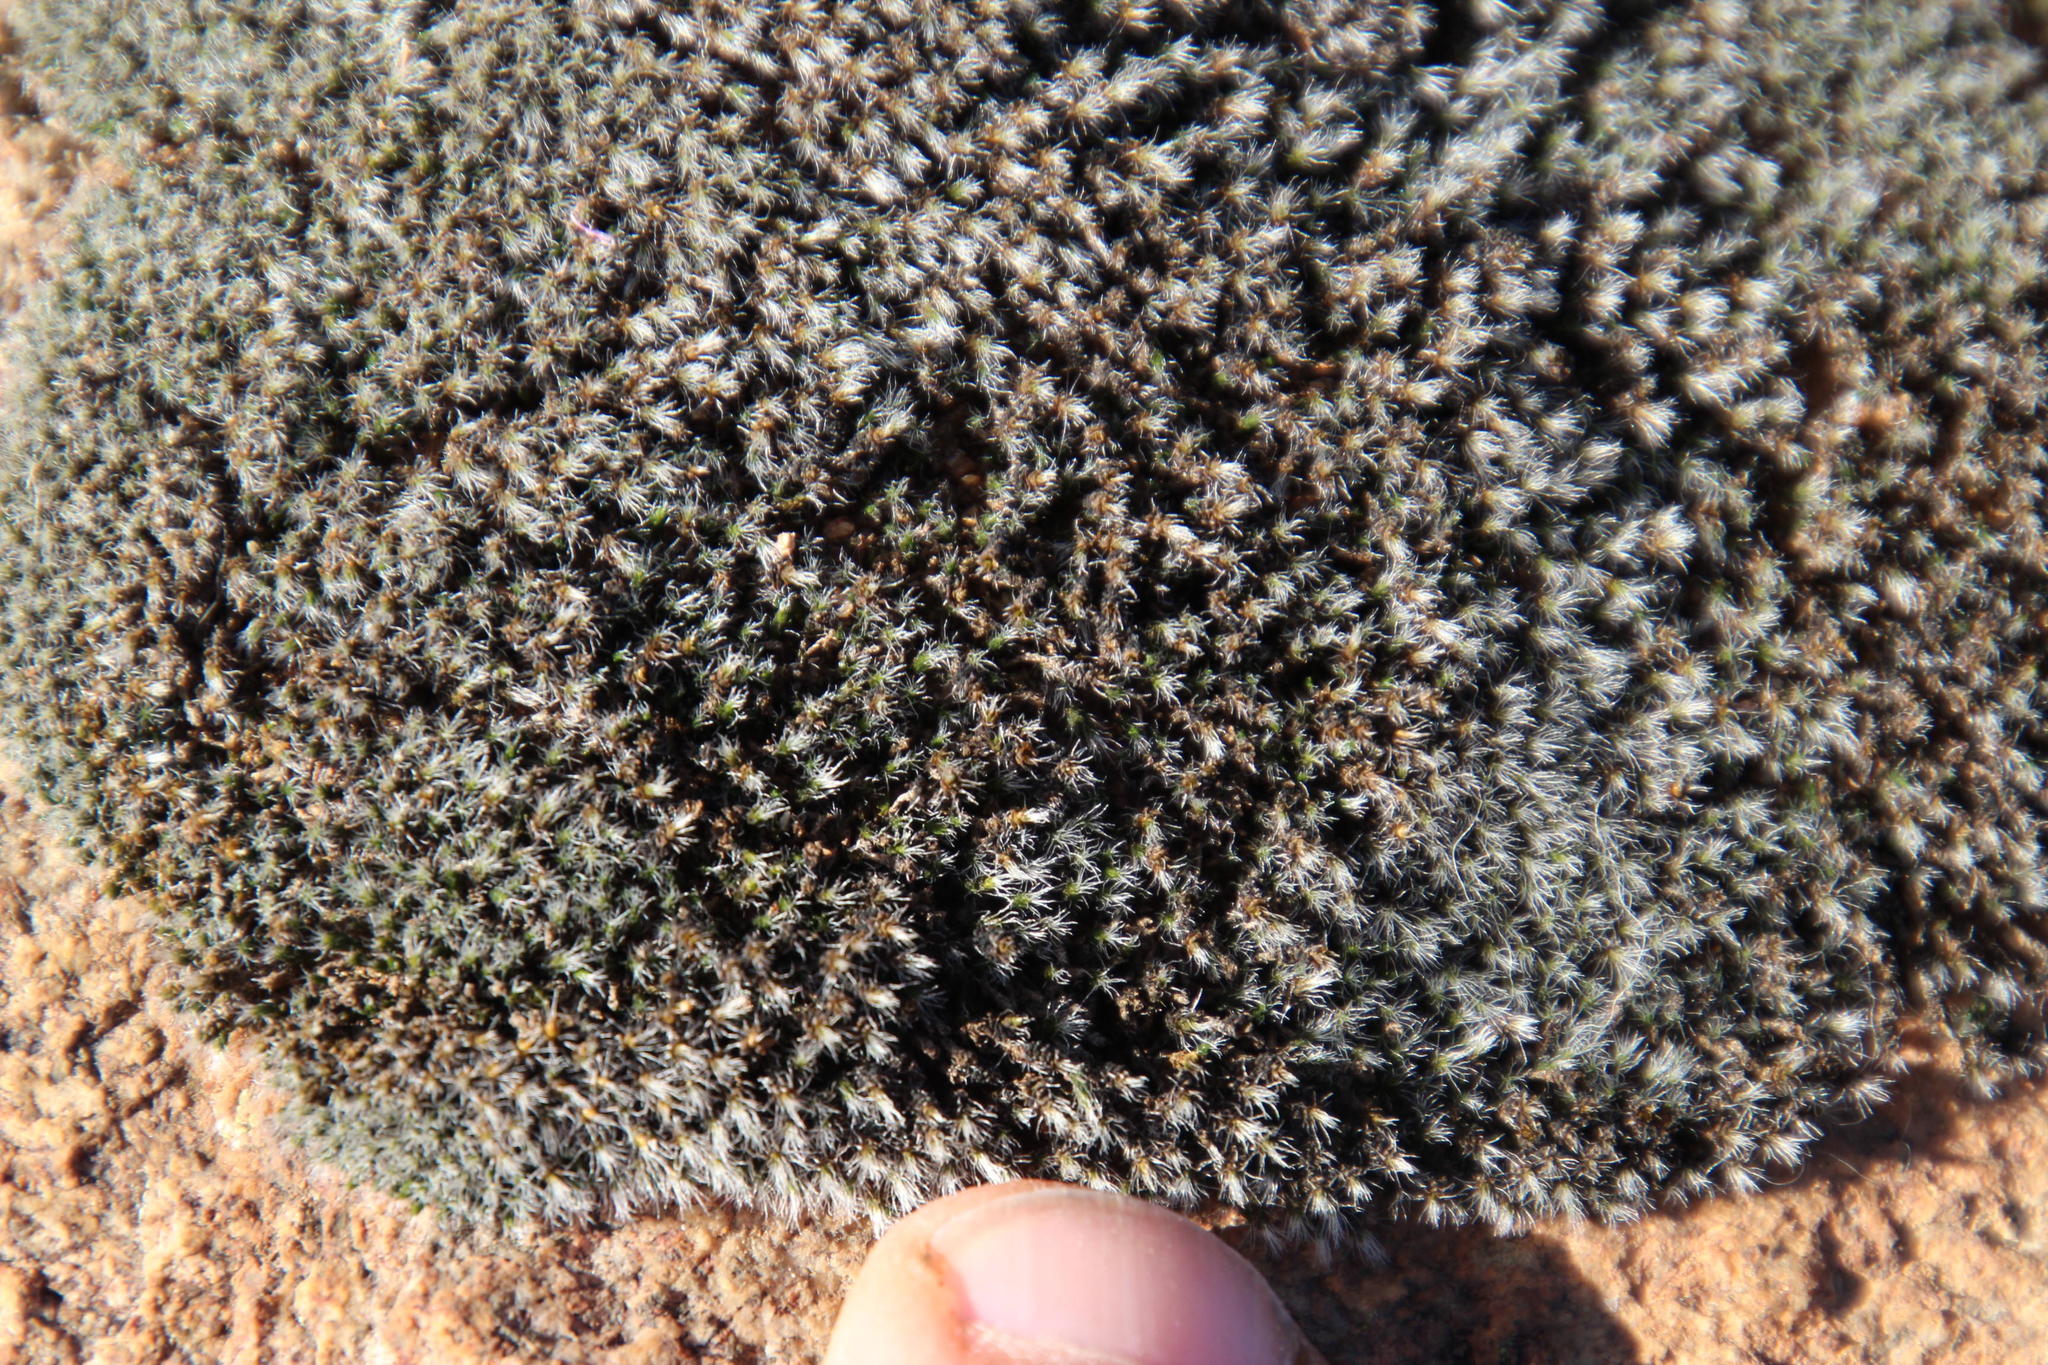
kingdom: Plantae
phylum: Bryophyta
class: Bryopsida
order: Grimmiales
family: Grimmiaceae
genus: Grimmia
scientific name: Grimmia laevigata
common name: Hoary grimmia
